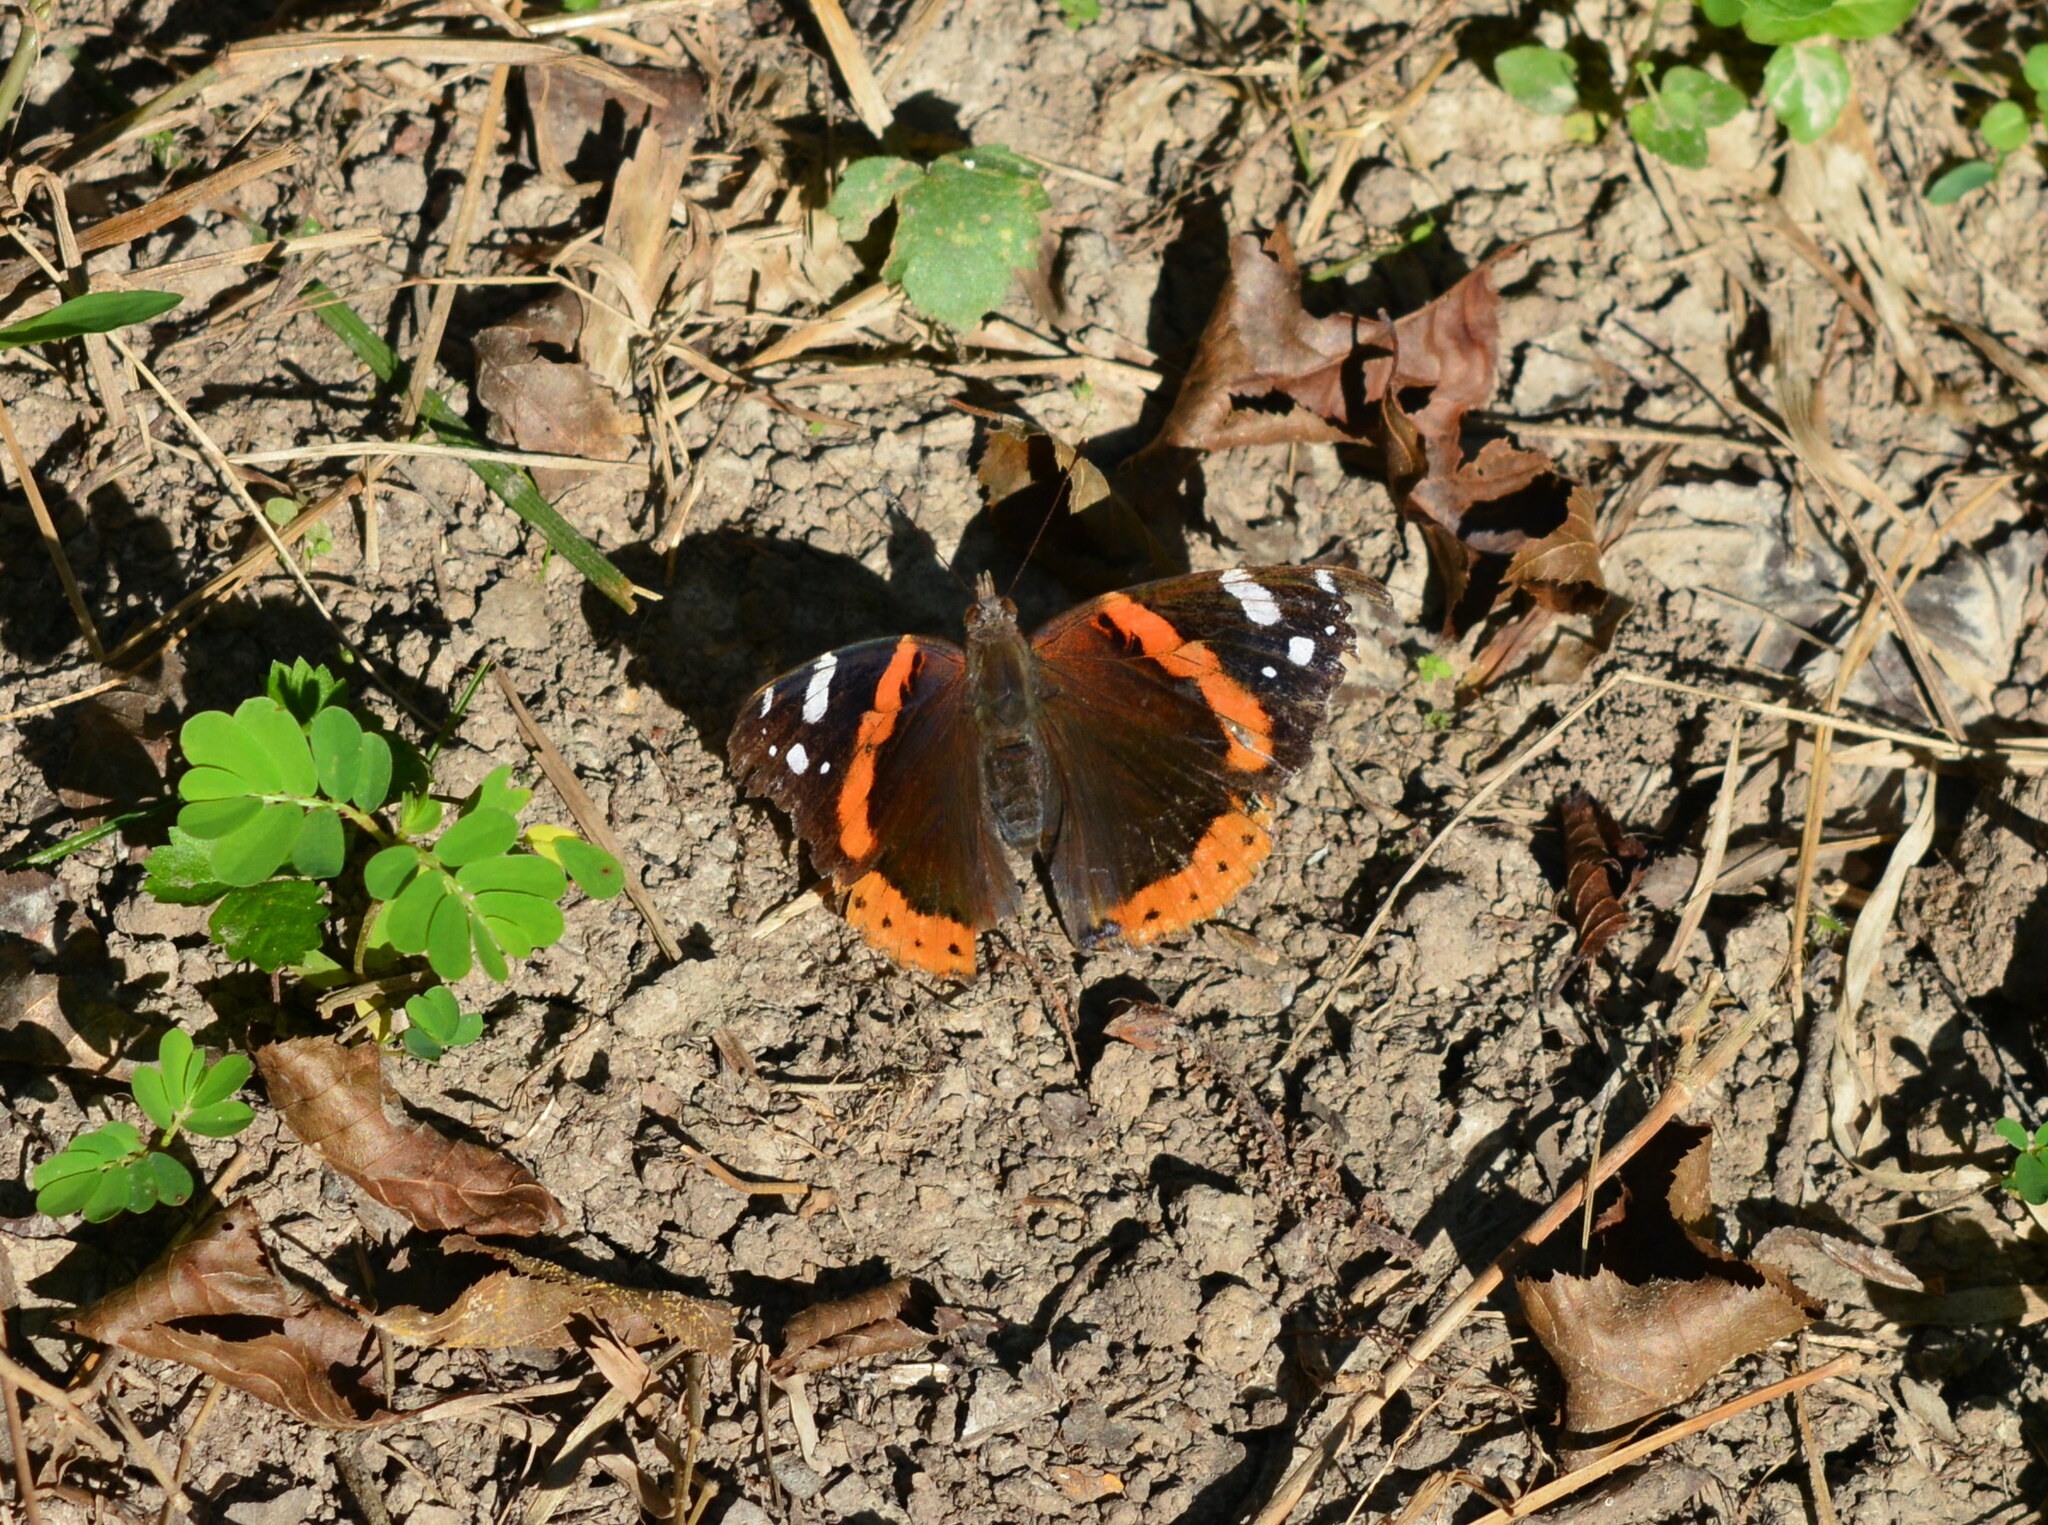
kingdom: Animalia
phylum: Arthropoda
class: Insecta
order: Lepidoptera
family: Nymphalidae
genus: Vanessa
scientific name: Vanessa atalanta
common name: Red admiral
